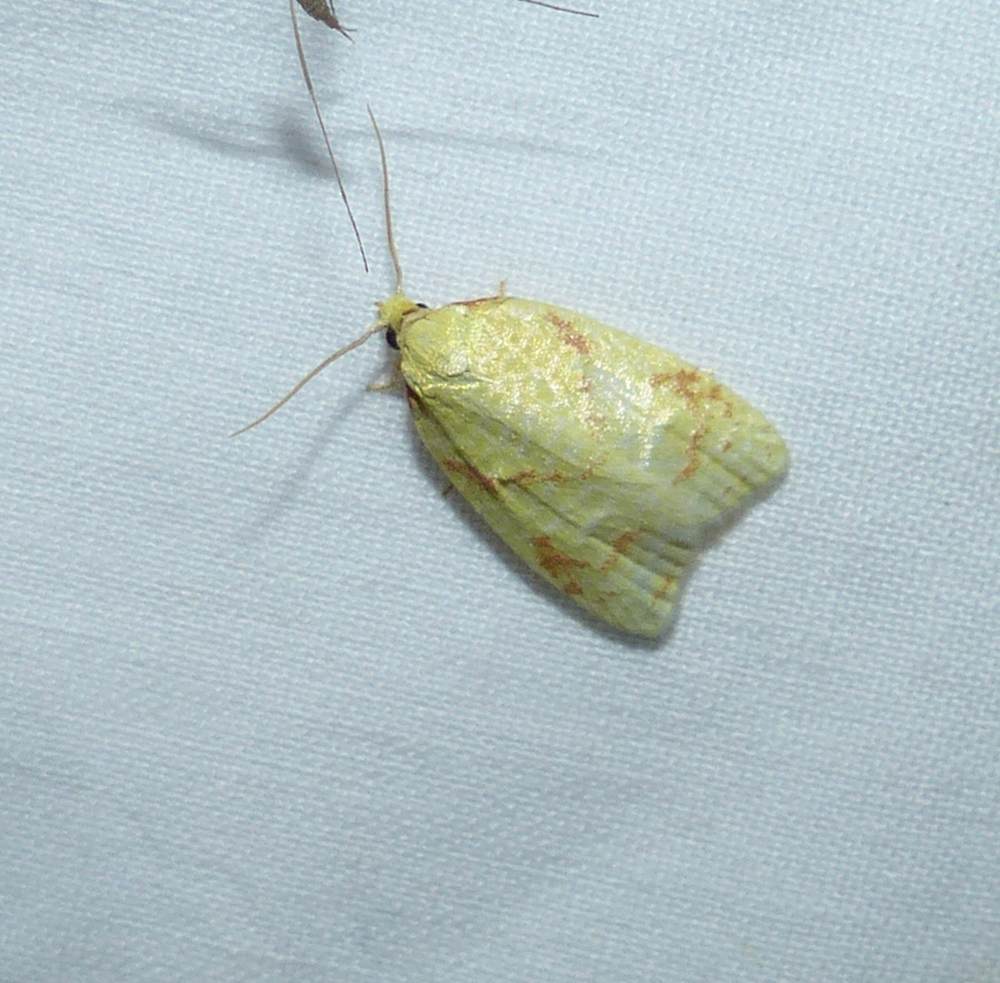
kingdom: Animalia
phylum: Arthropoda
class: Insecta
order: Lepidoptera
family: Tortricidae
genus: Cenopis
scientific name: Cenopis pettitana
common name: Maple-basswood leafroller moth
